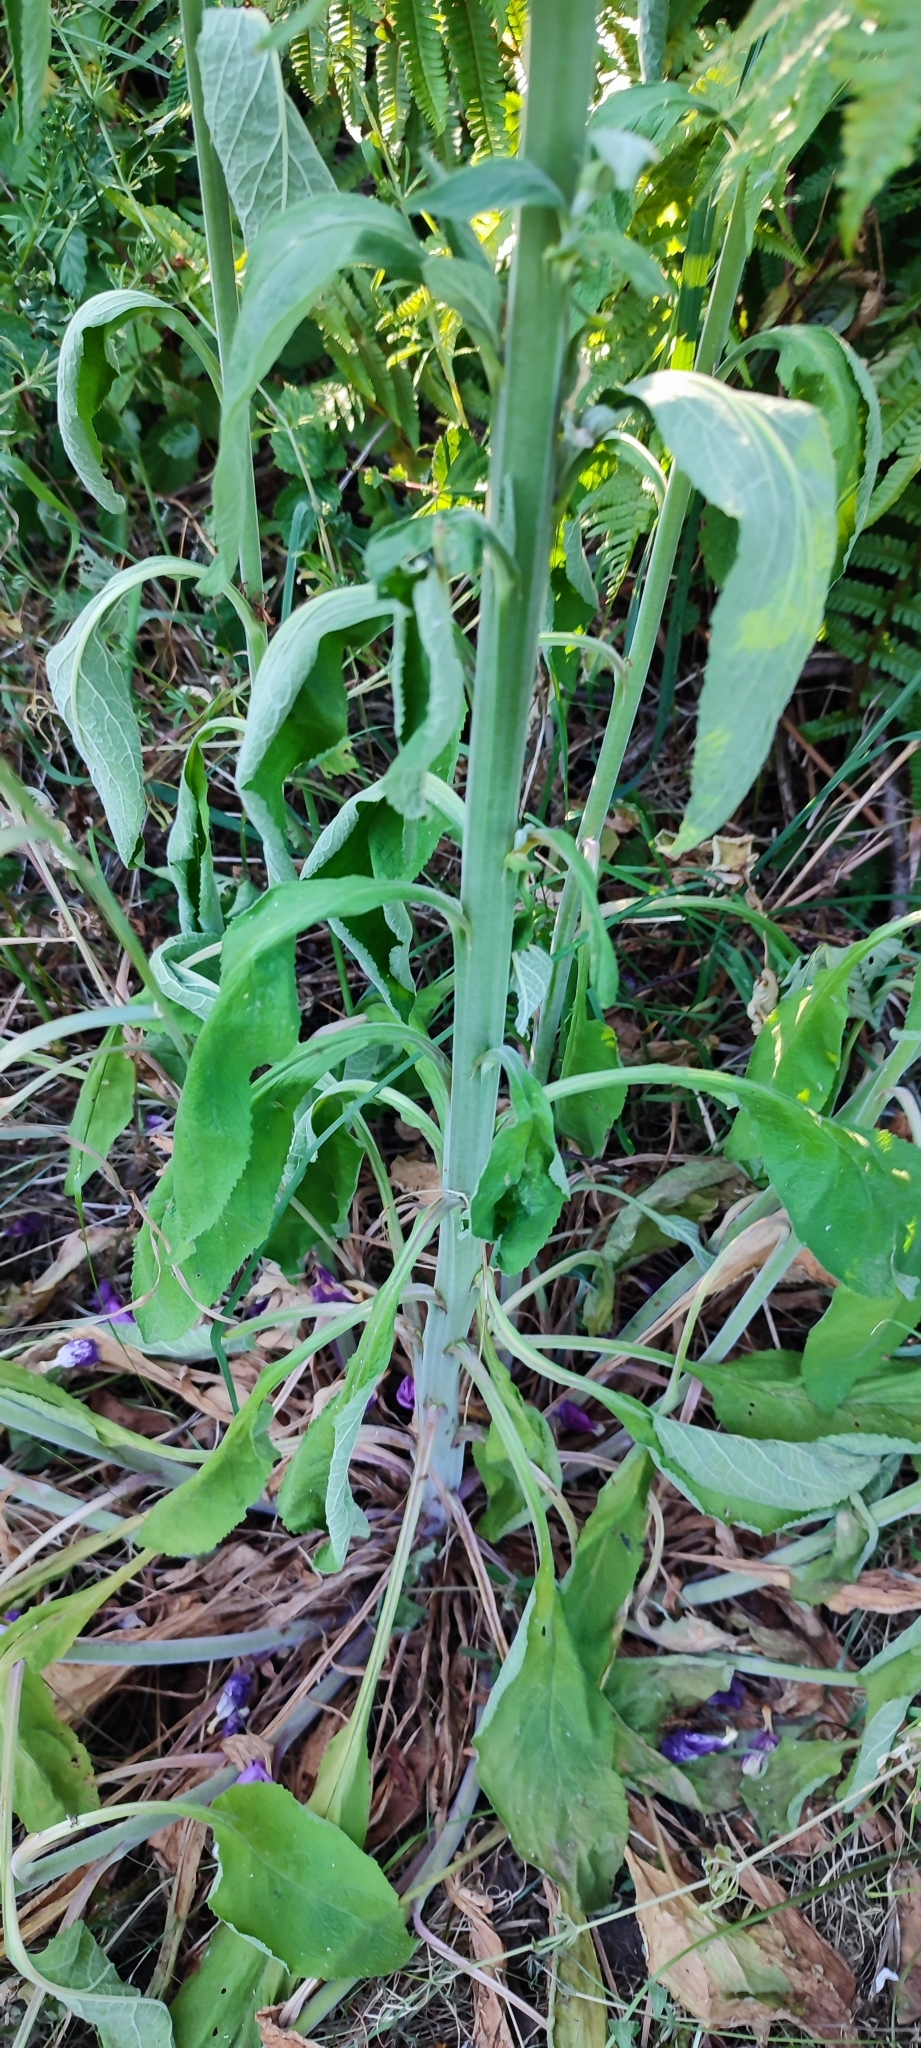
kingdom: Plantae
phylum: Tracheophyta
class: Magnoliopsida
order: Lamiales
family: Plantaginaceae
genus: Digitalis
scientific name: Digitalis purpurea
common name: Foxglove
